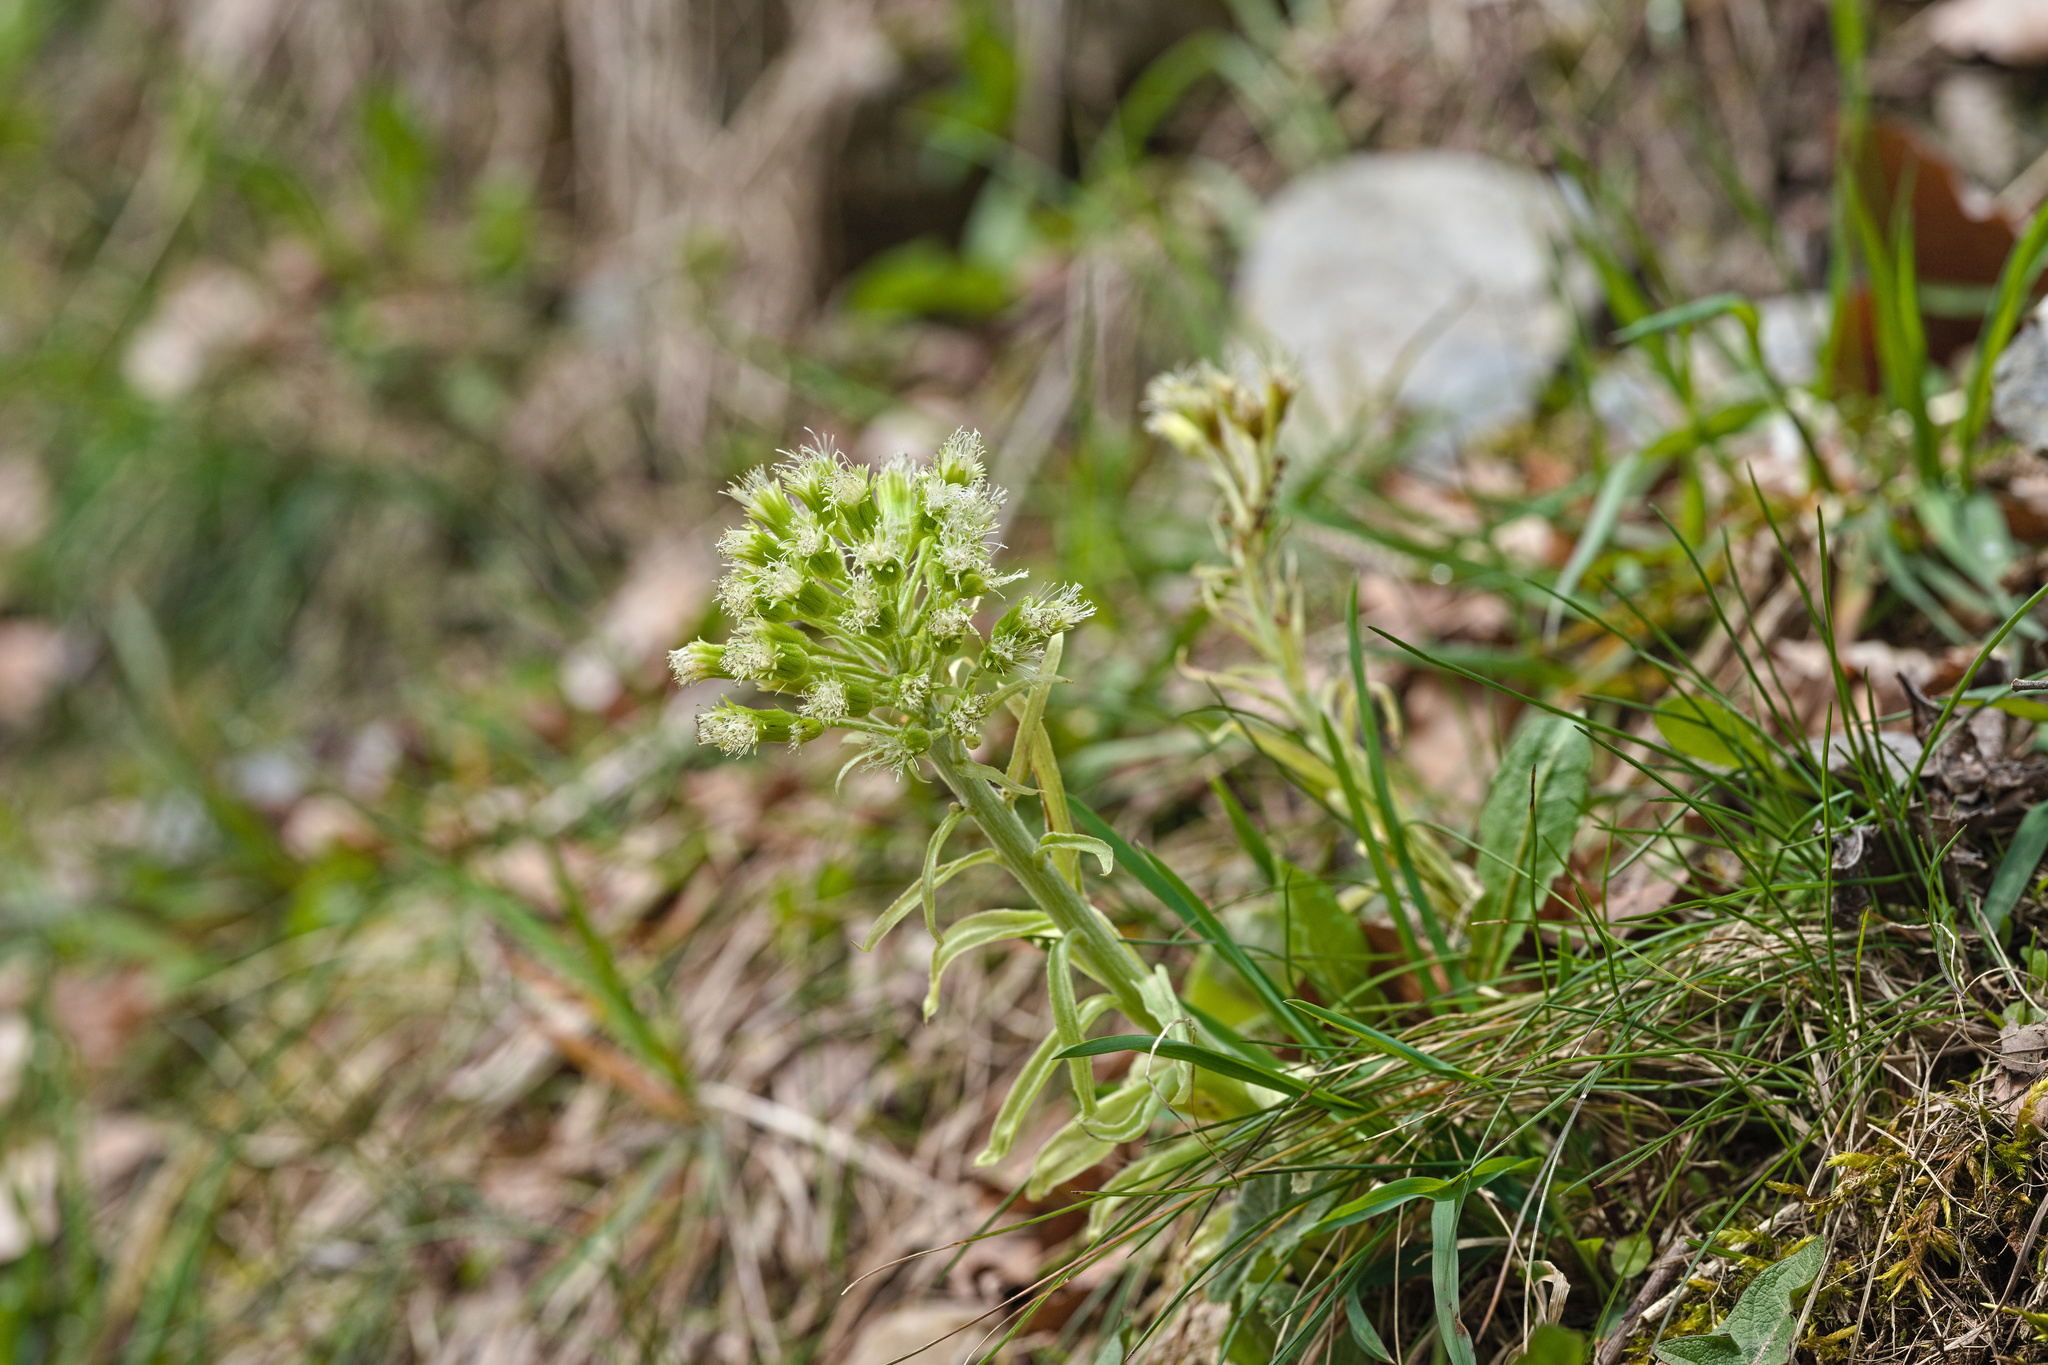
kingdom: Plantae
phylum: Tracheophyta
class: Magnoliopsida
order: Asterales
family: Asteraceae
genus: Petasites
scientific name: Petasites albus
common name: White butterbur
